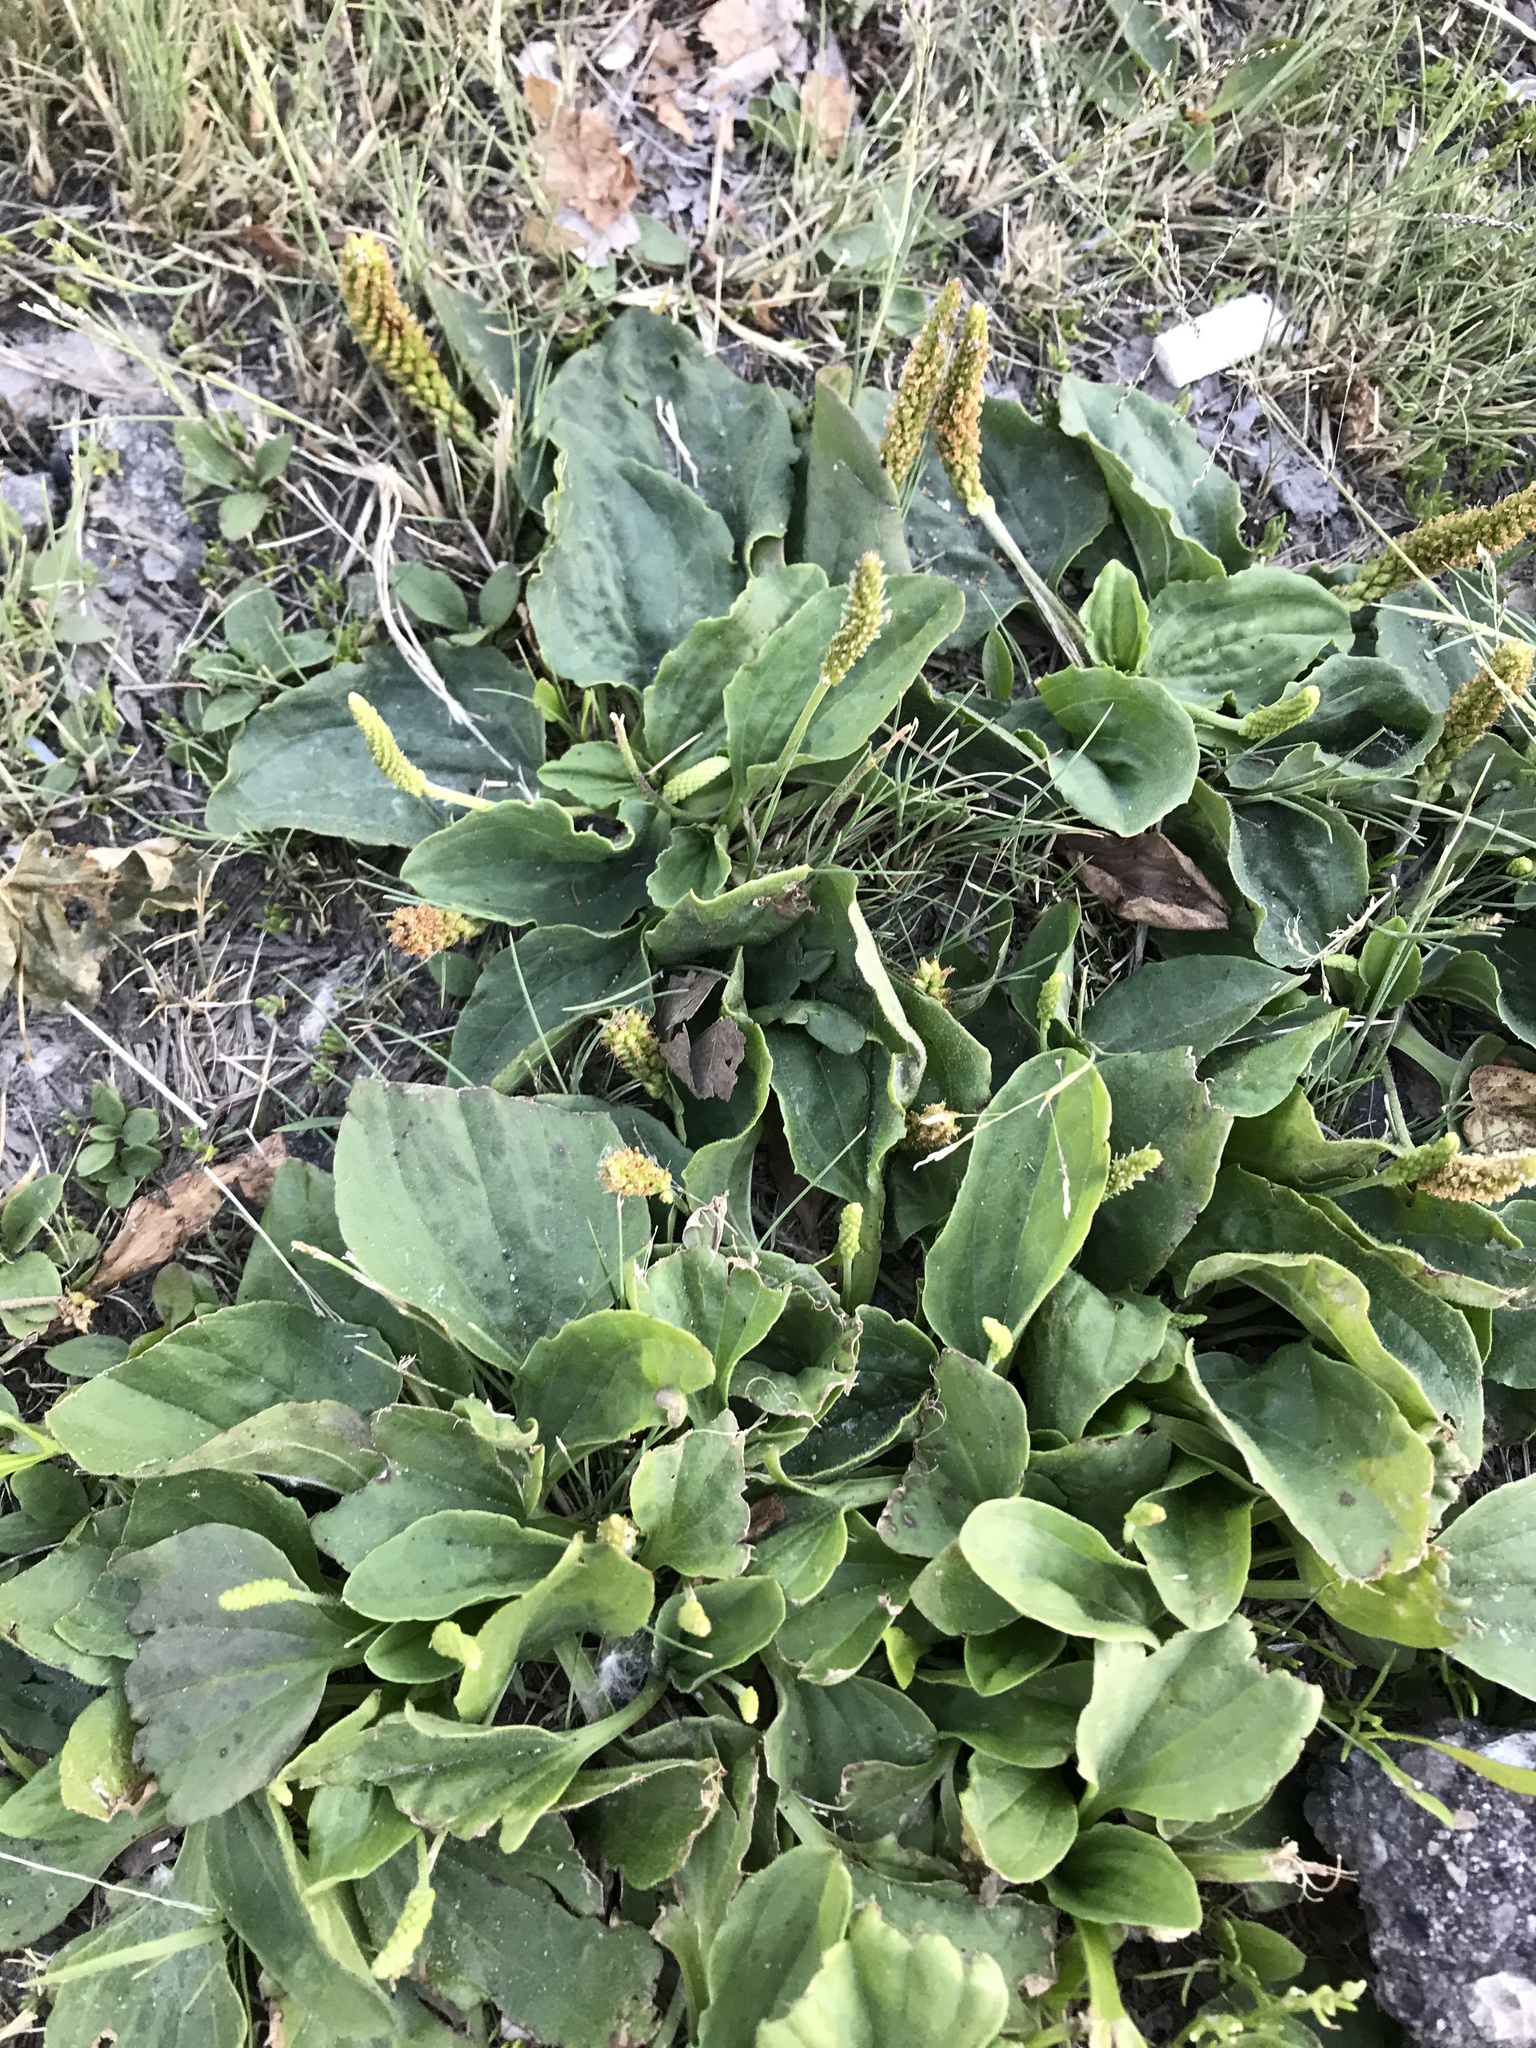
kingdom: Plantae
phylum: Tracheophyta
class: Magnoliopsida
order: Lamiales
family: Plantaginaceae
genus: Plantago
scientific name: Plantago major
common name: Common plantain
